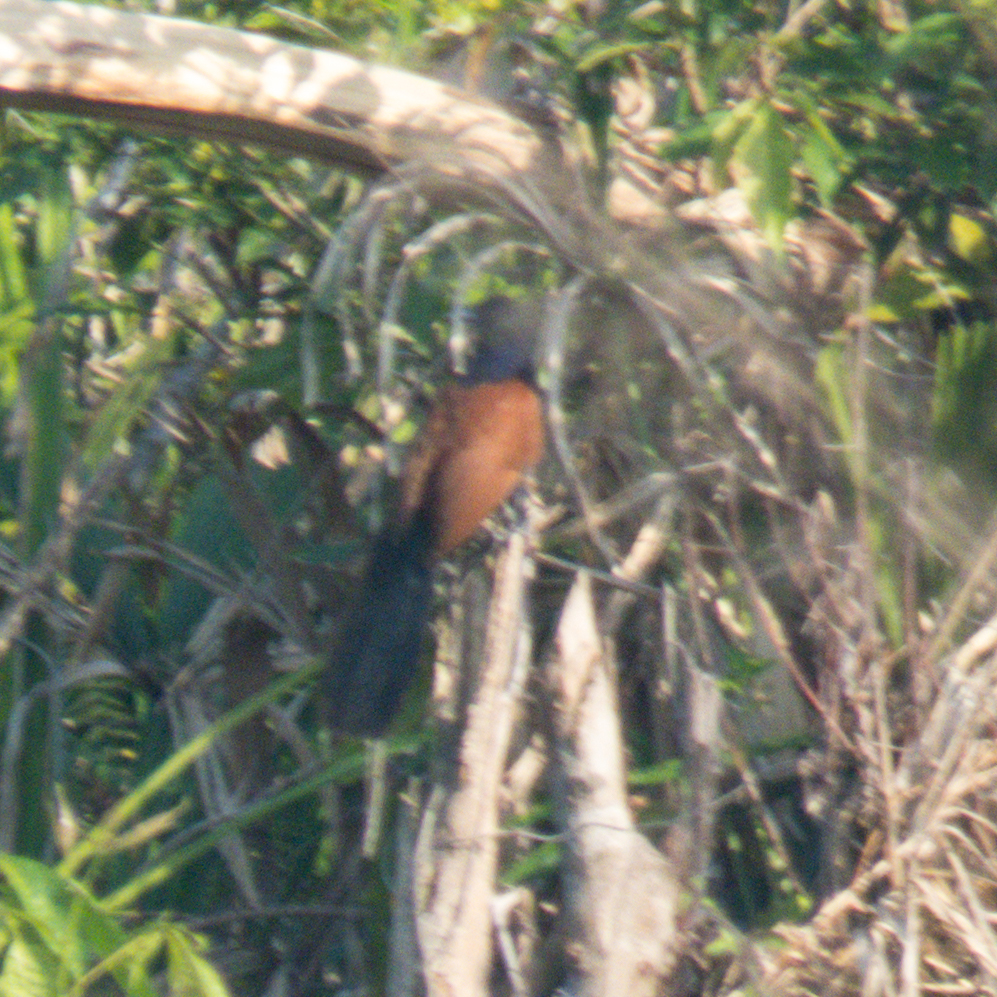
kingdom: Animalia
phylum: Chordata
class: Aves
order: Cuculiformes
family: Cuculidae
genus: Centropus
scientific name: Centropus sinensis
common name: Greater coucal
